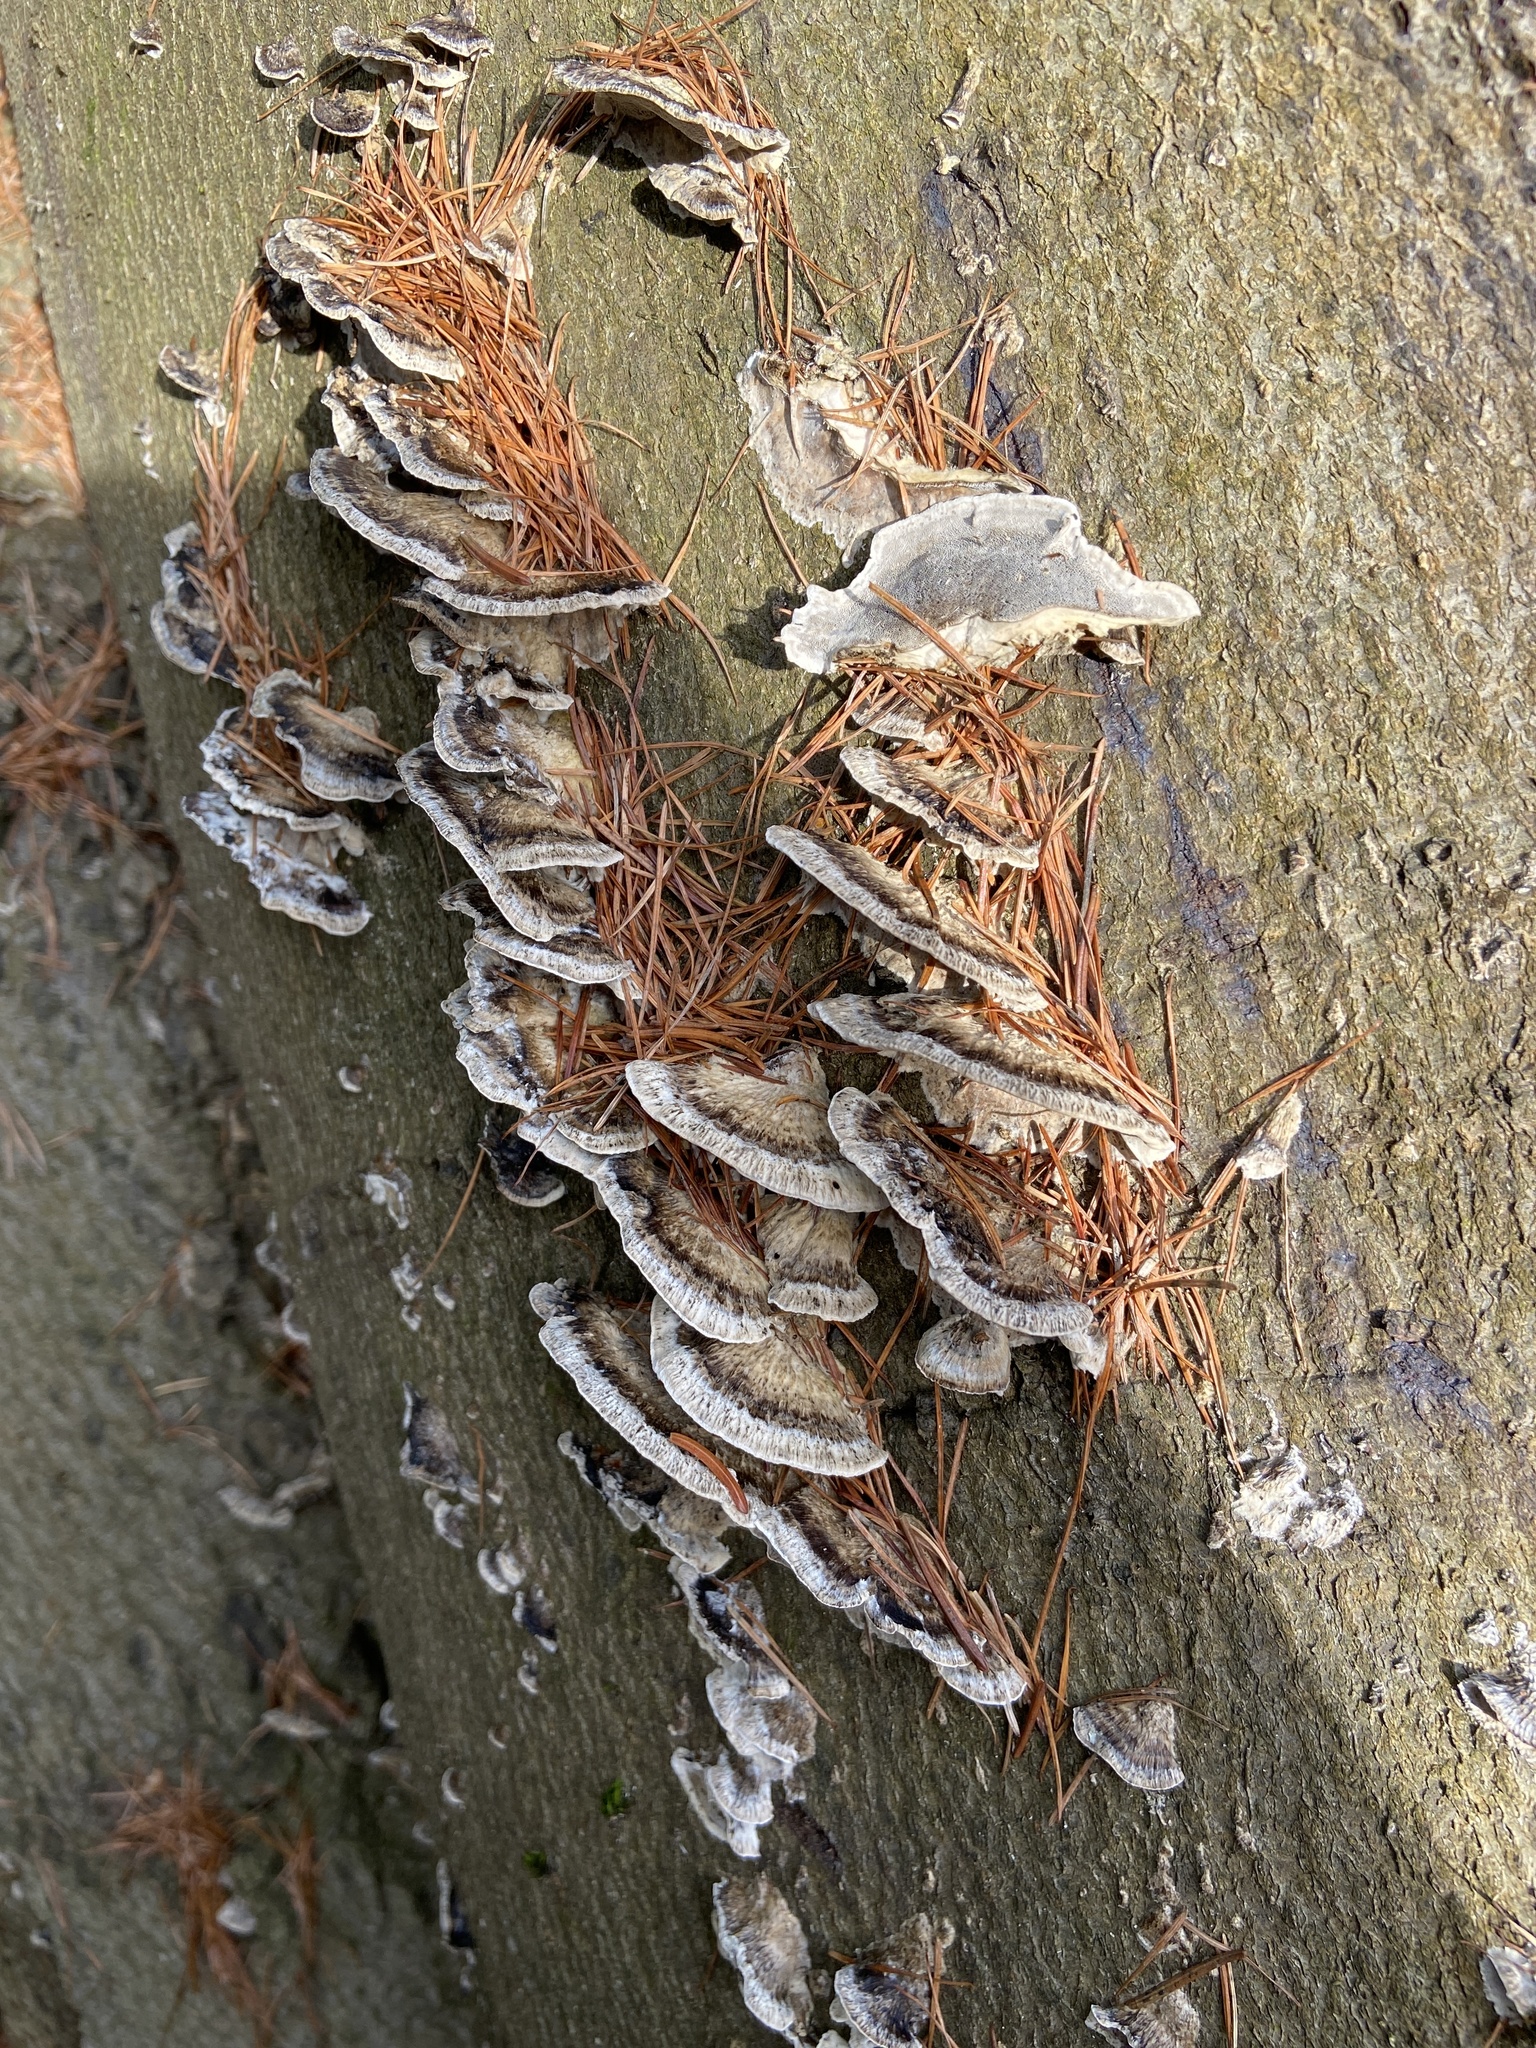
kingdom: Fungi
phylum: Basidiomycota
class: Agaricomycetes
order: Polyporales
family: Phanerochaetaceae
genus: Bjerkandera
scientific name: Bjerkandera adusta
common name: Smoky bracket
